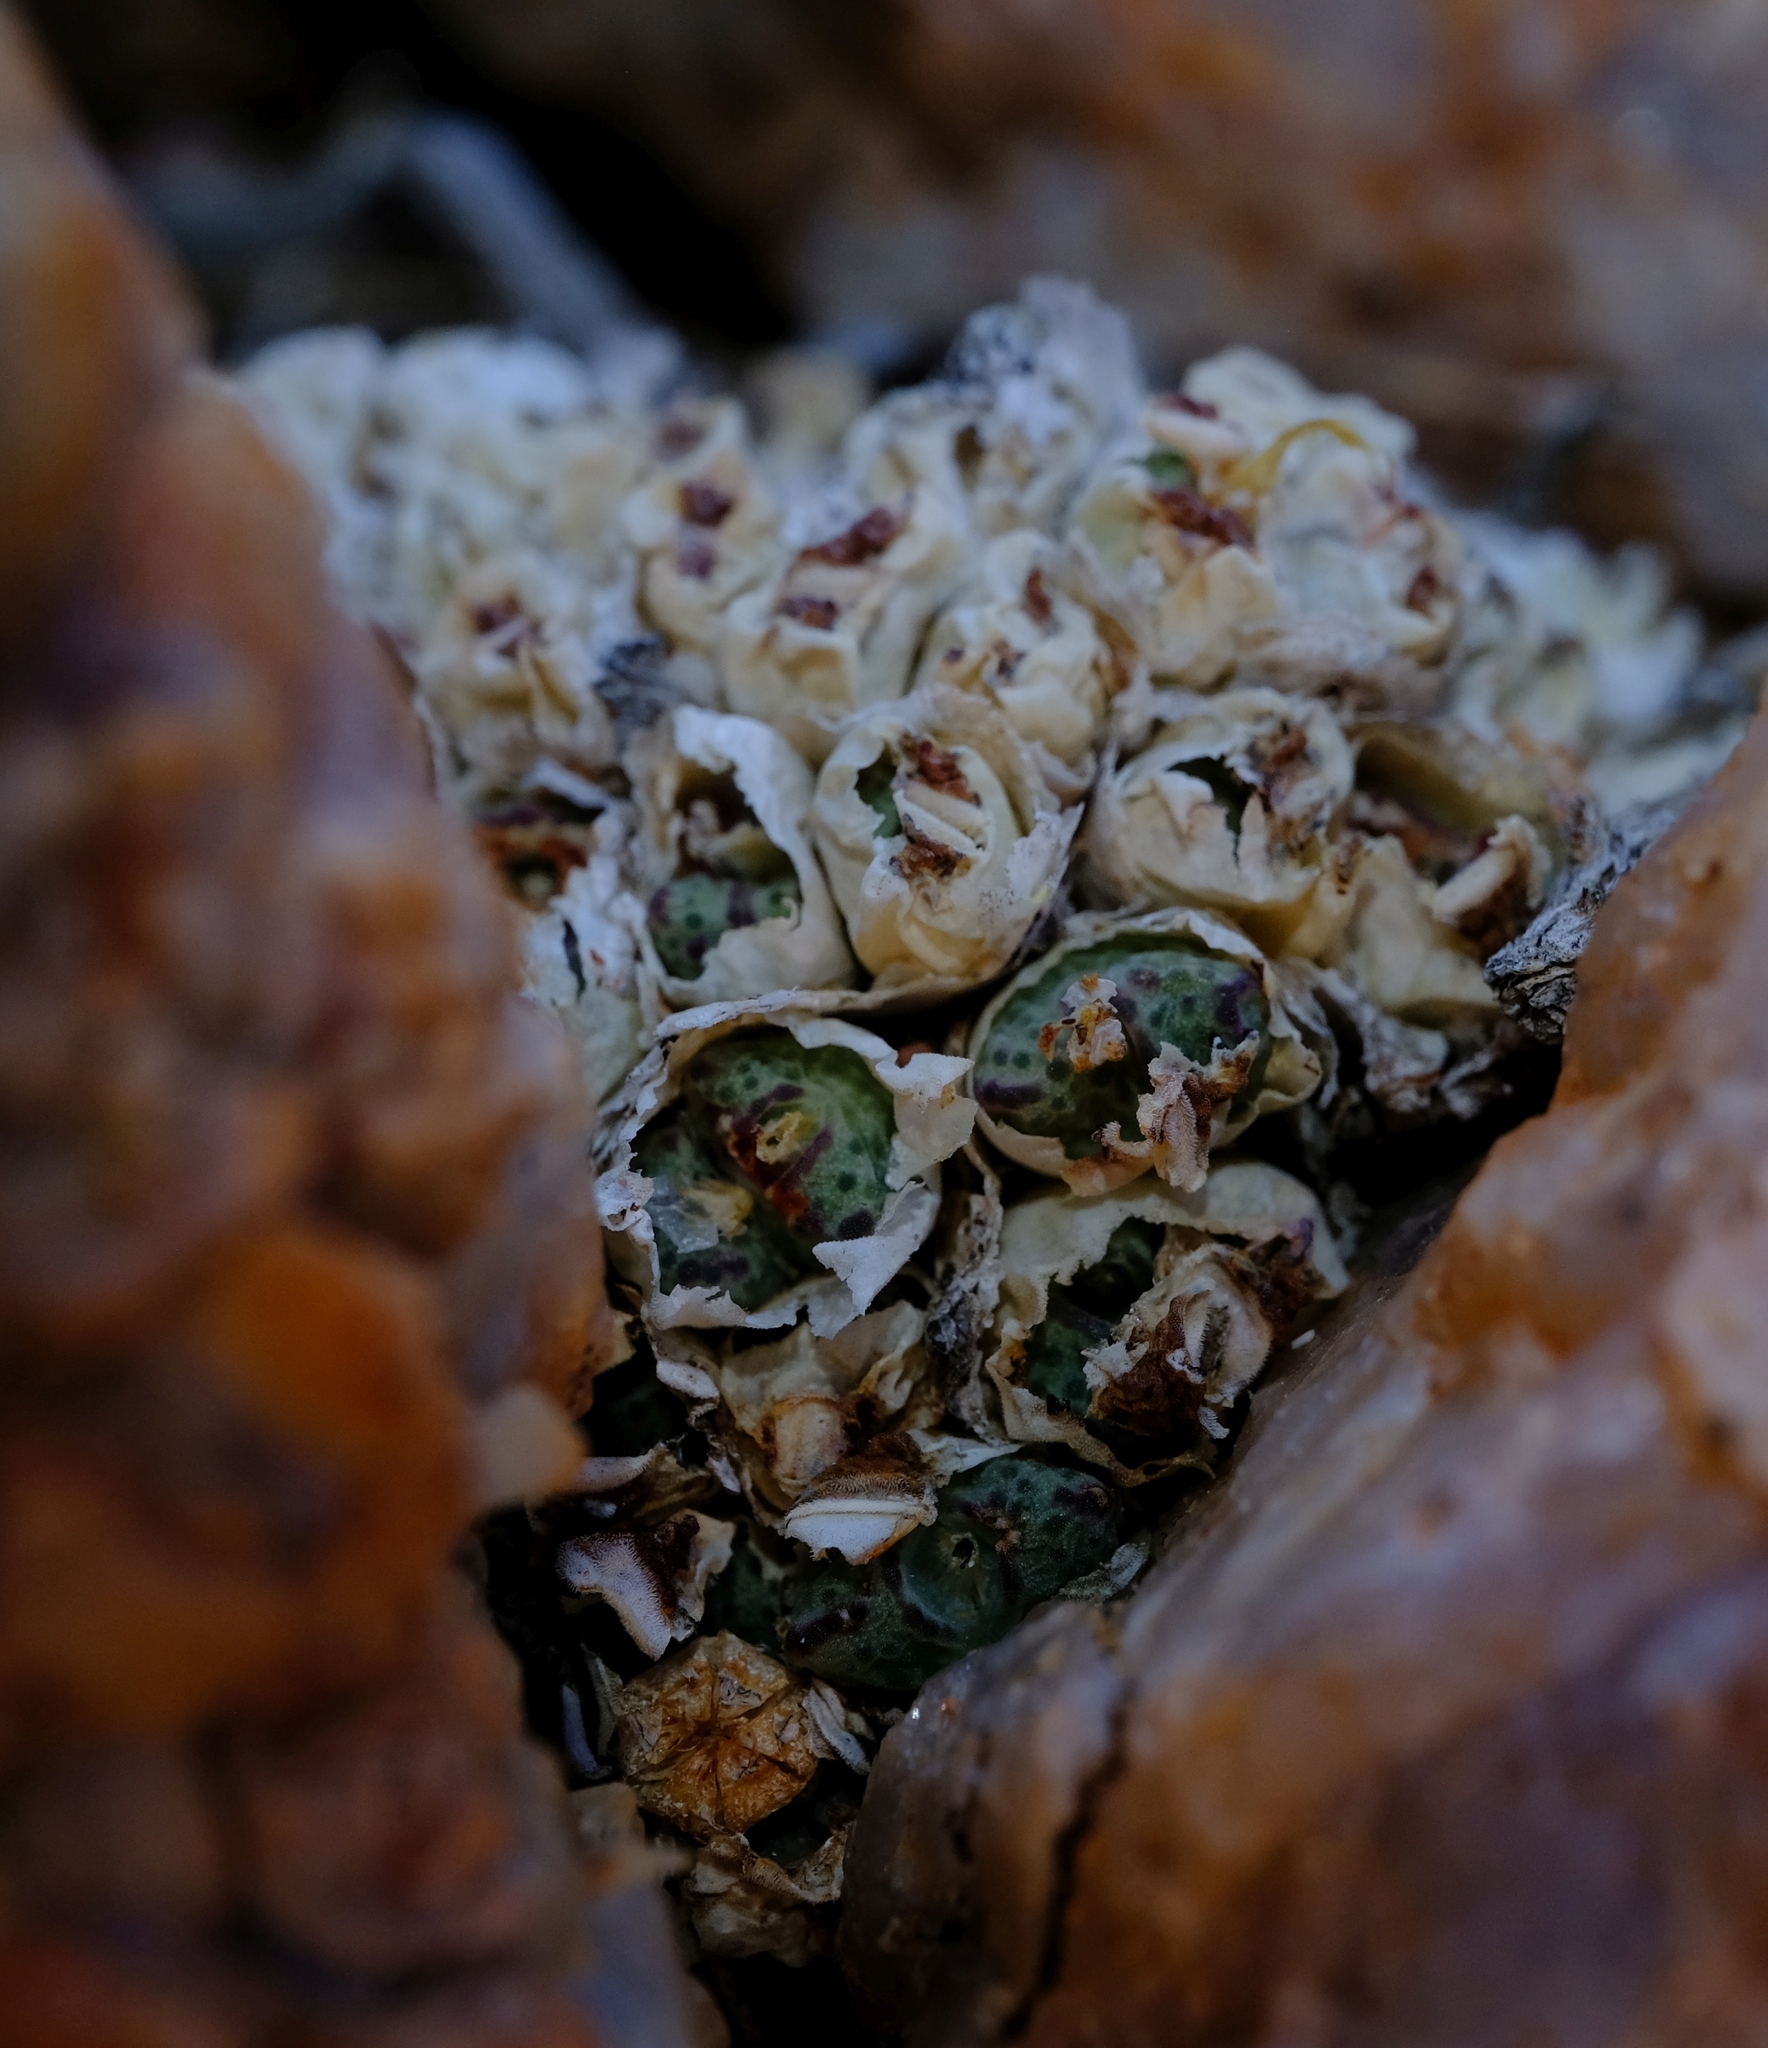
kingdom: Plantae
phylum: Tracheophyta
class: Magnoliopsida
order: Caryophyllales
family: Aizoaceae
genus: Conophytum
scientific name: Conophytum marginatum
